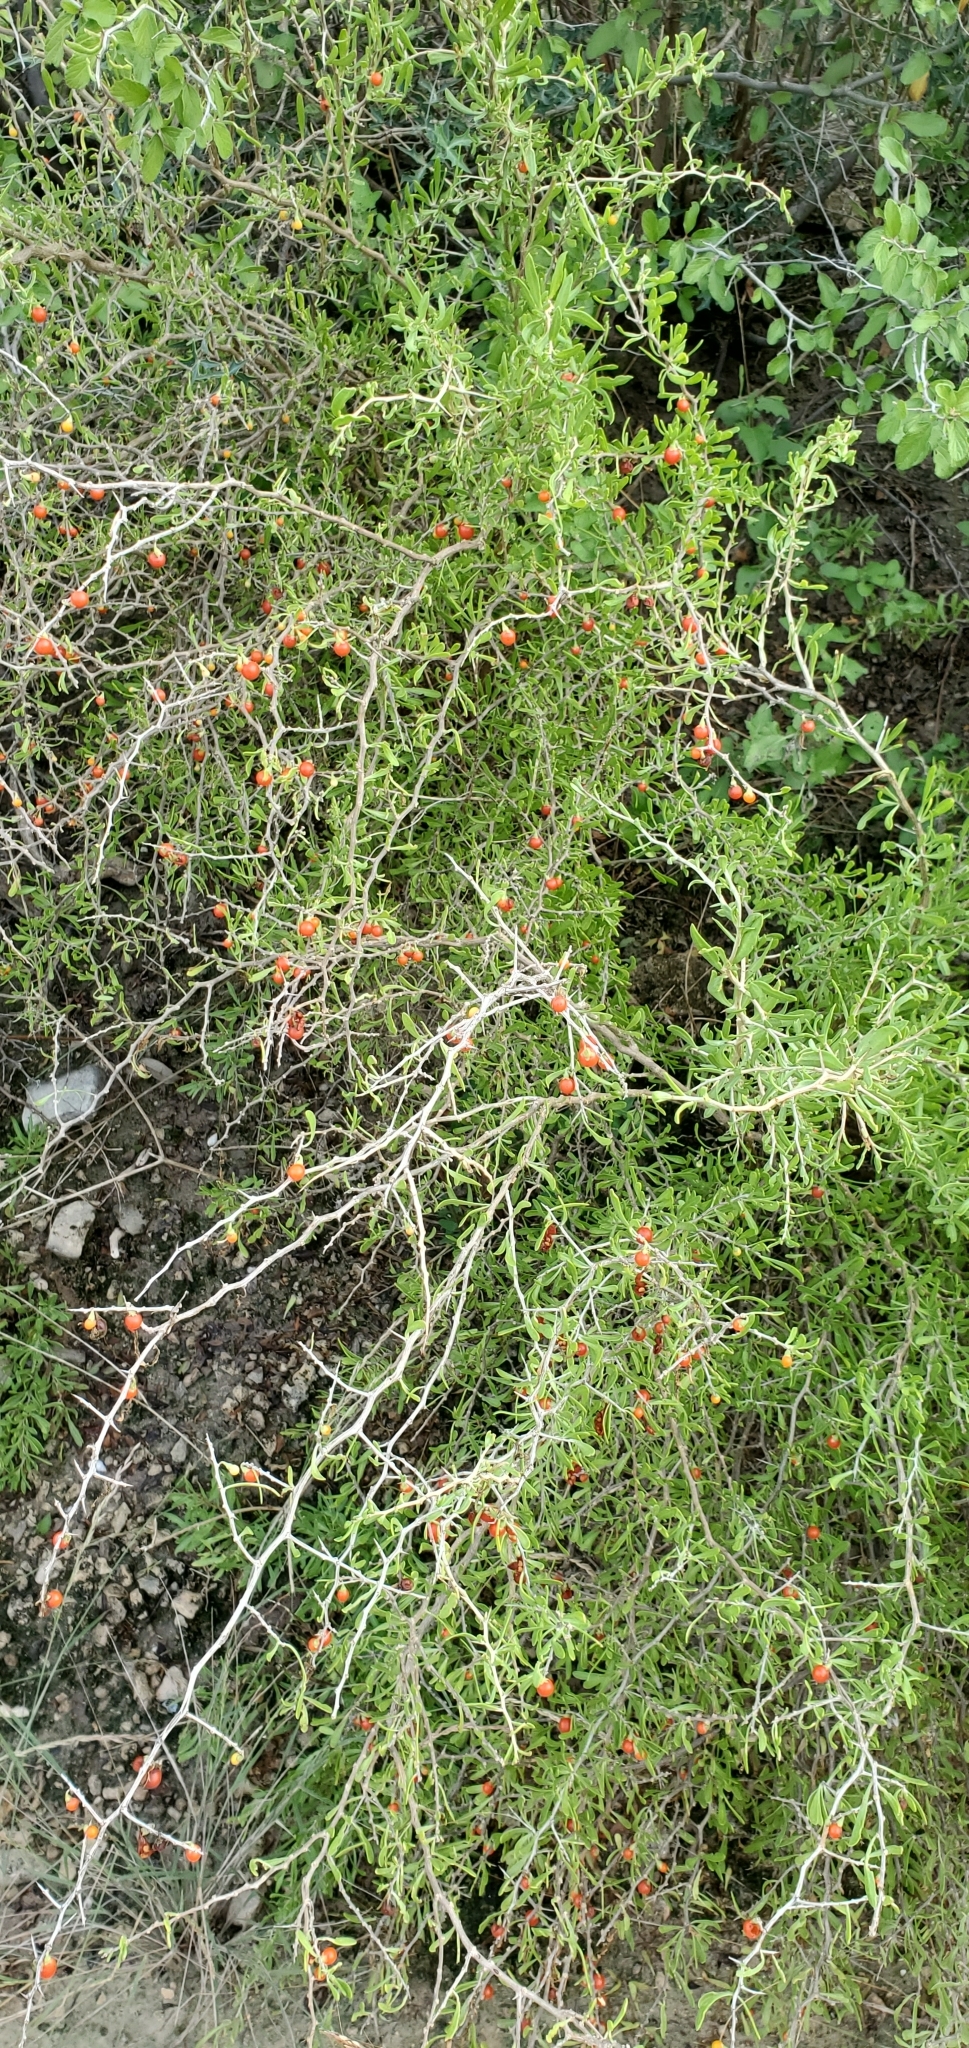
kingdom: Plantae
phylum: Tracheophyta
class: Magnoliopsida
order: Solanales
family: Solanaceae
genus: Lycium
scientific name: Lycium berlandieri
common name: Berlandier wolfberry
